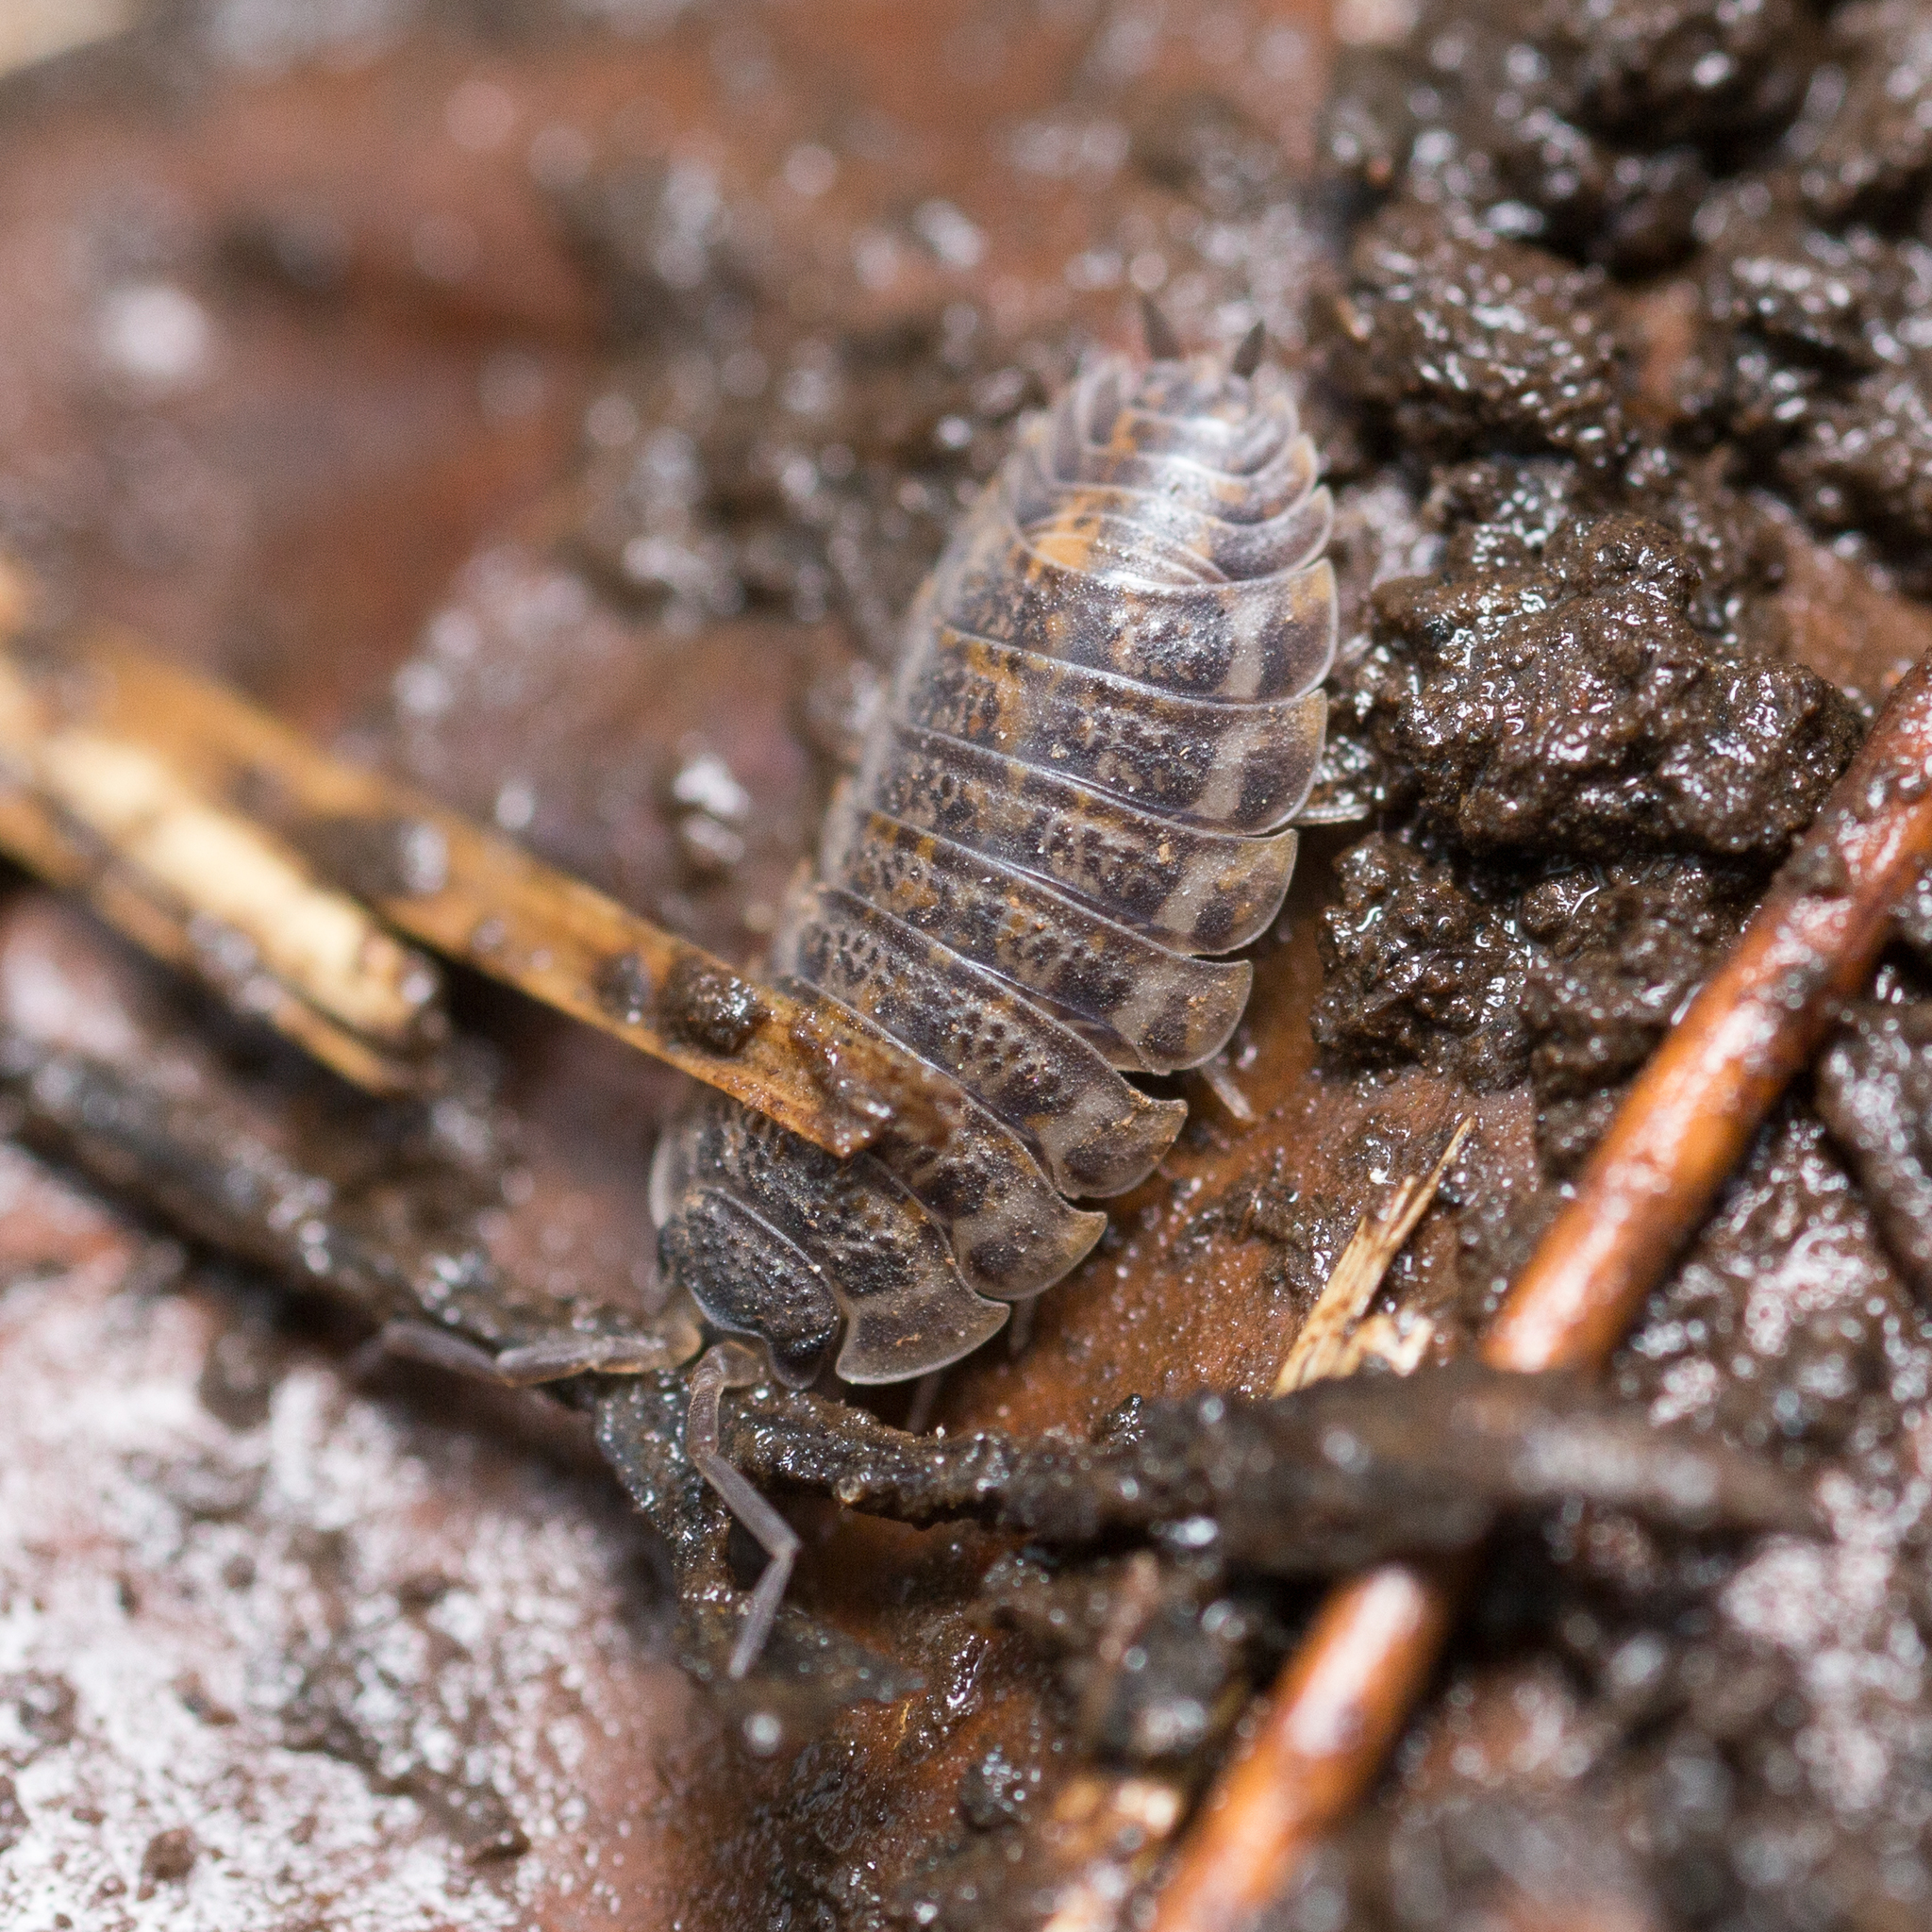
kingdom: Animalia
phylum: Arthropoda
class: Malacostraca
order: Isopoda
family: Trachelipodidae
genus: Trachelipus
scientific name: Trachelipus rathkii
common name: Isopod
